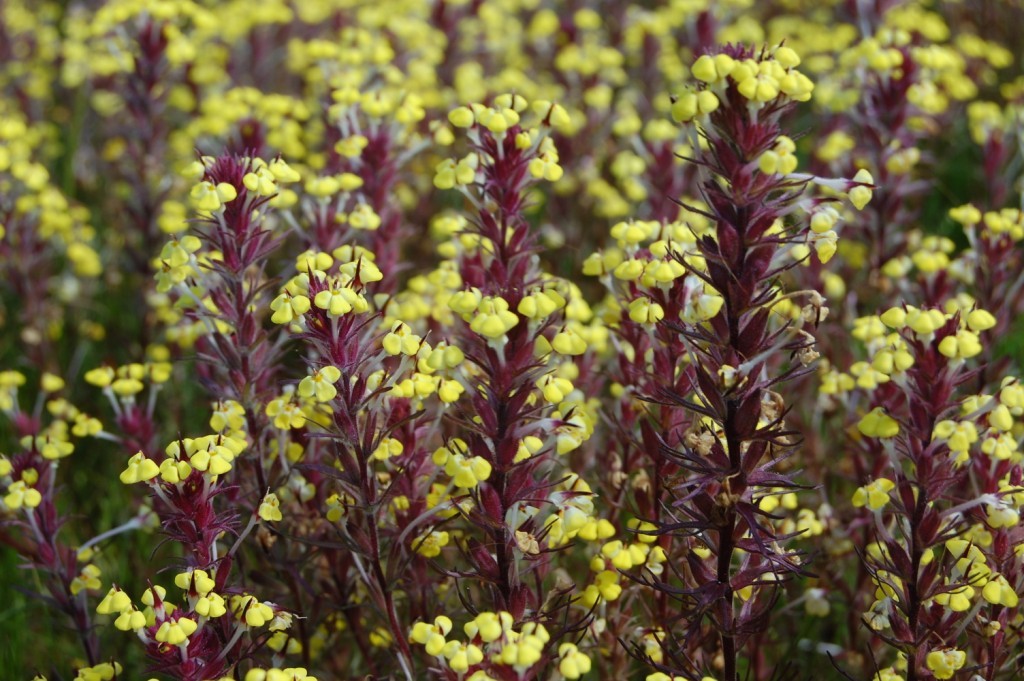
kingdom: Plantae
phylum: Tracheophyta
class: Magnoliopsida
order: Lamiales
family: Orobanchaceae
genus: Triphysaria
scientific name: Triphysaria eriantha
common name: Johnny-tuck
